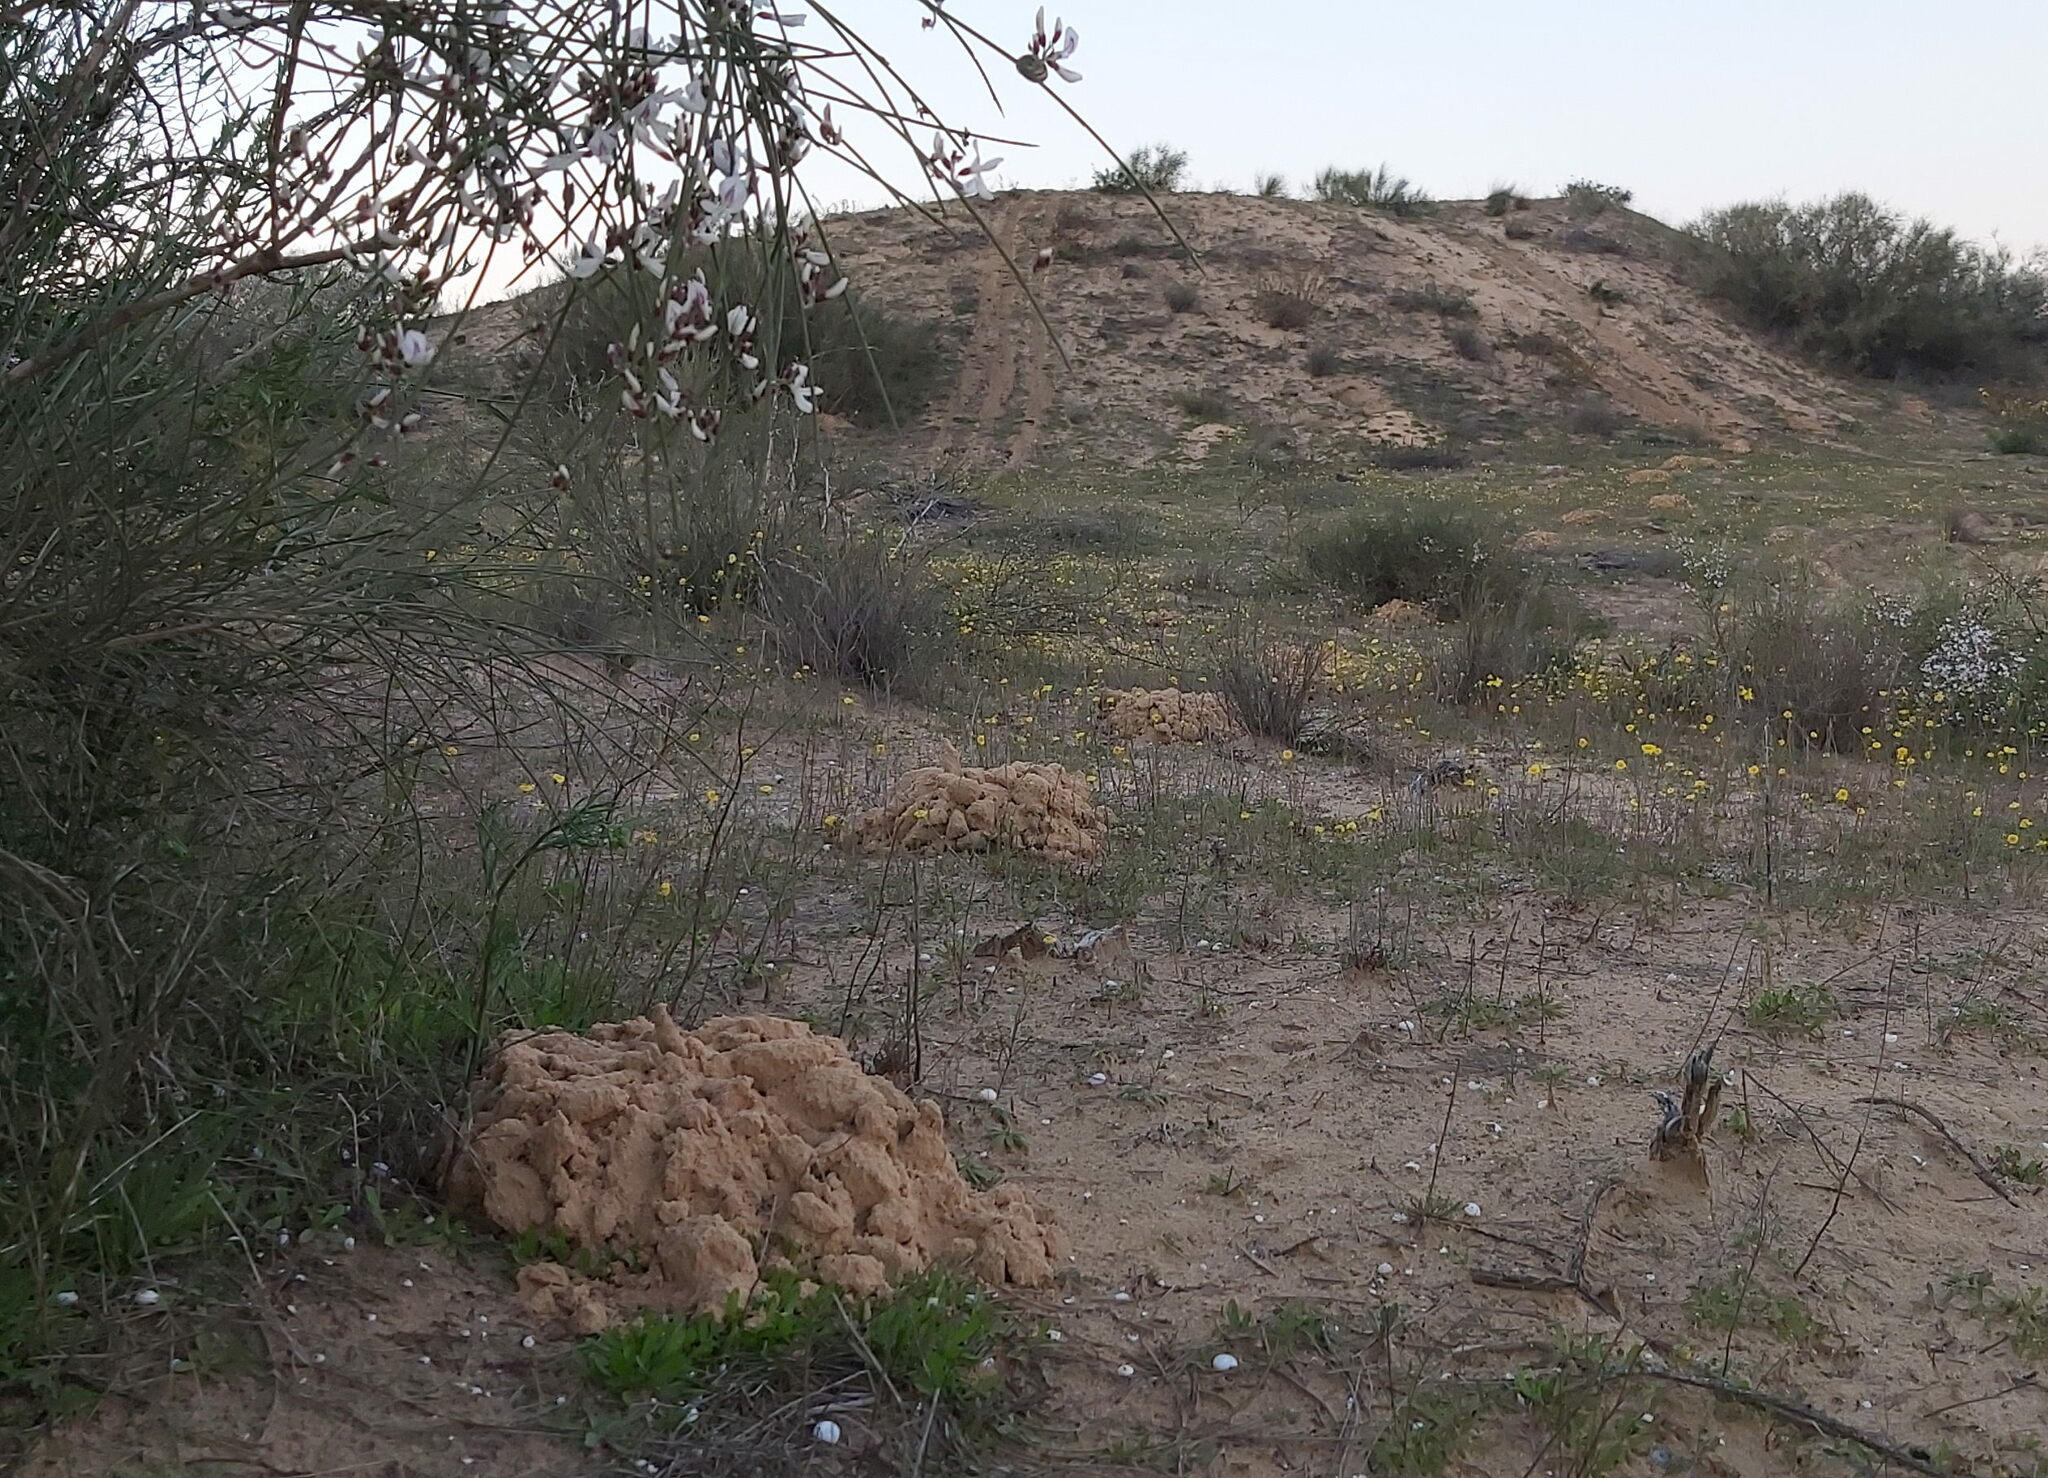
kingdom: Animalia
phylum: Chordata
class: Mammalia
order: Rodentia
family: Spalacidae
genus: Spalax
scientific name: Spalax ehrenbergi
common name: Middle east blind mole rat
